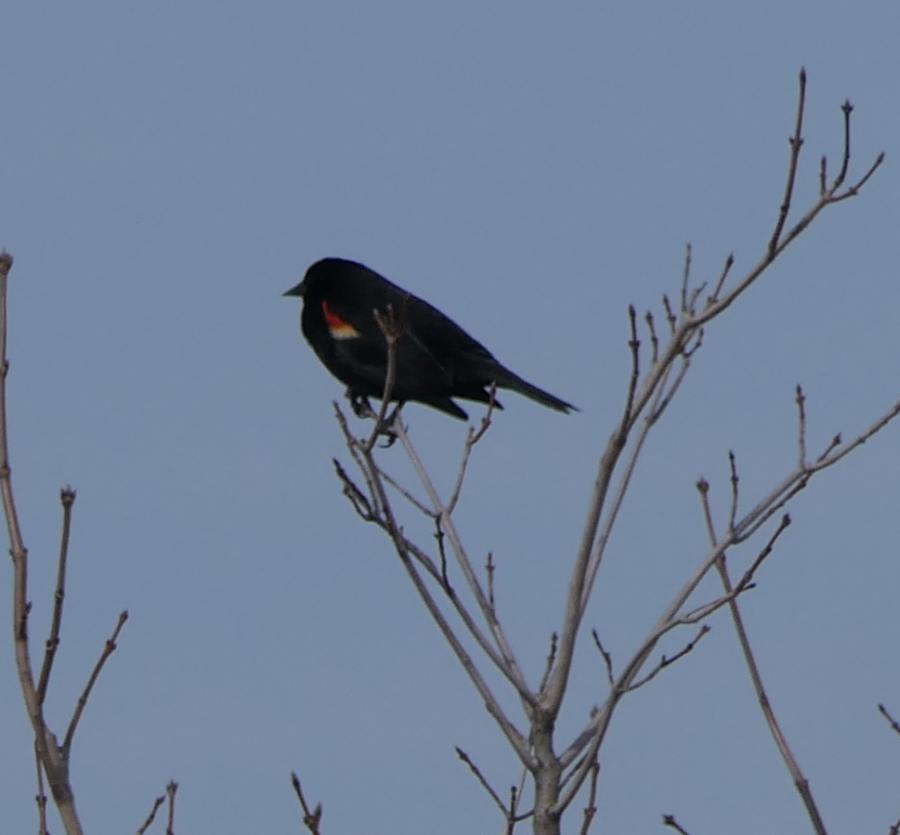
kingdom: Animalia
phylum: Chordata
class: Aves
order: Passeriformes
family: Icteridae
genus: Agelaius
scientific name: Agelaius phoeniceus
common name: Red-winged blackbird
